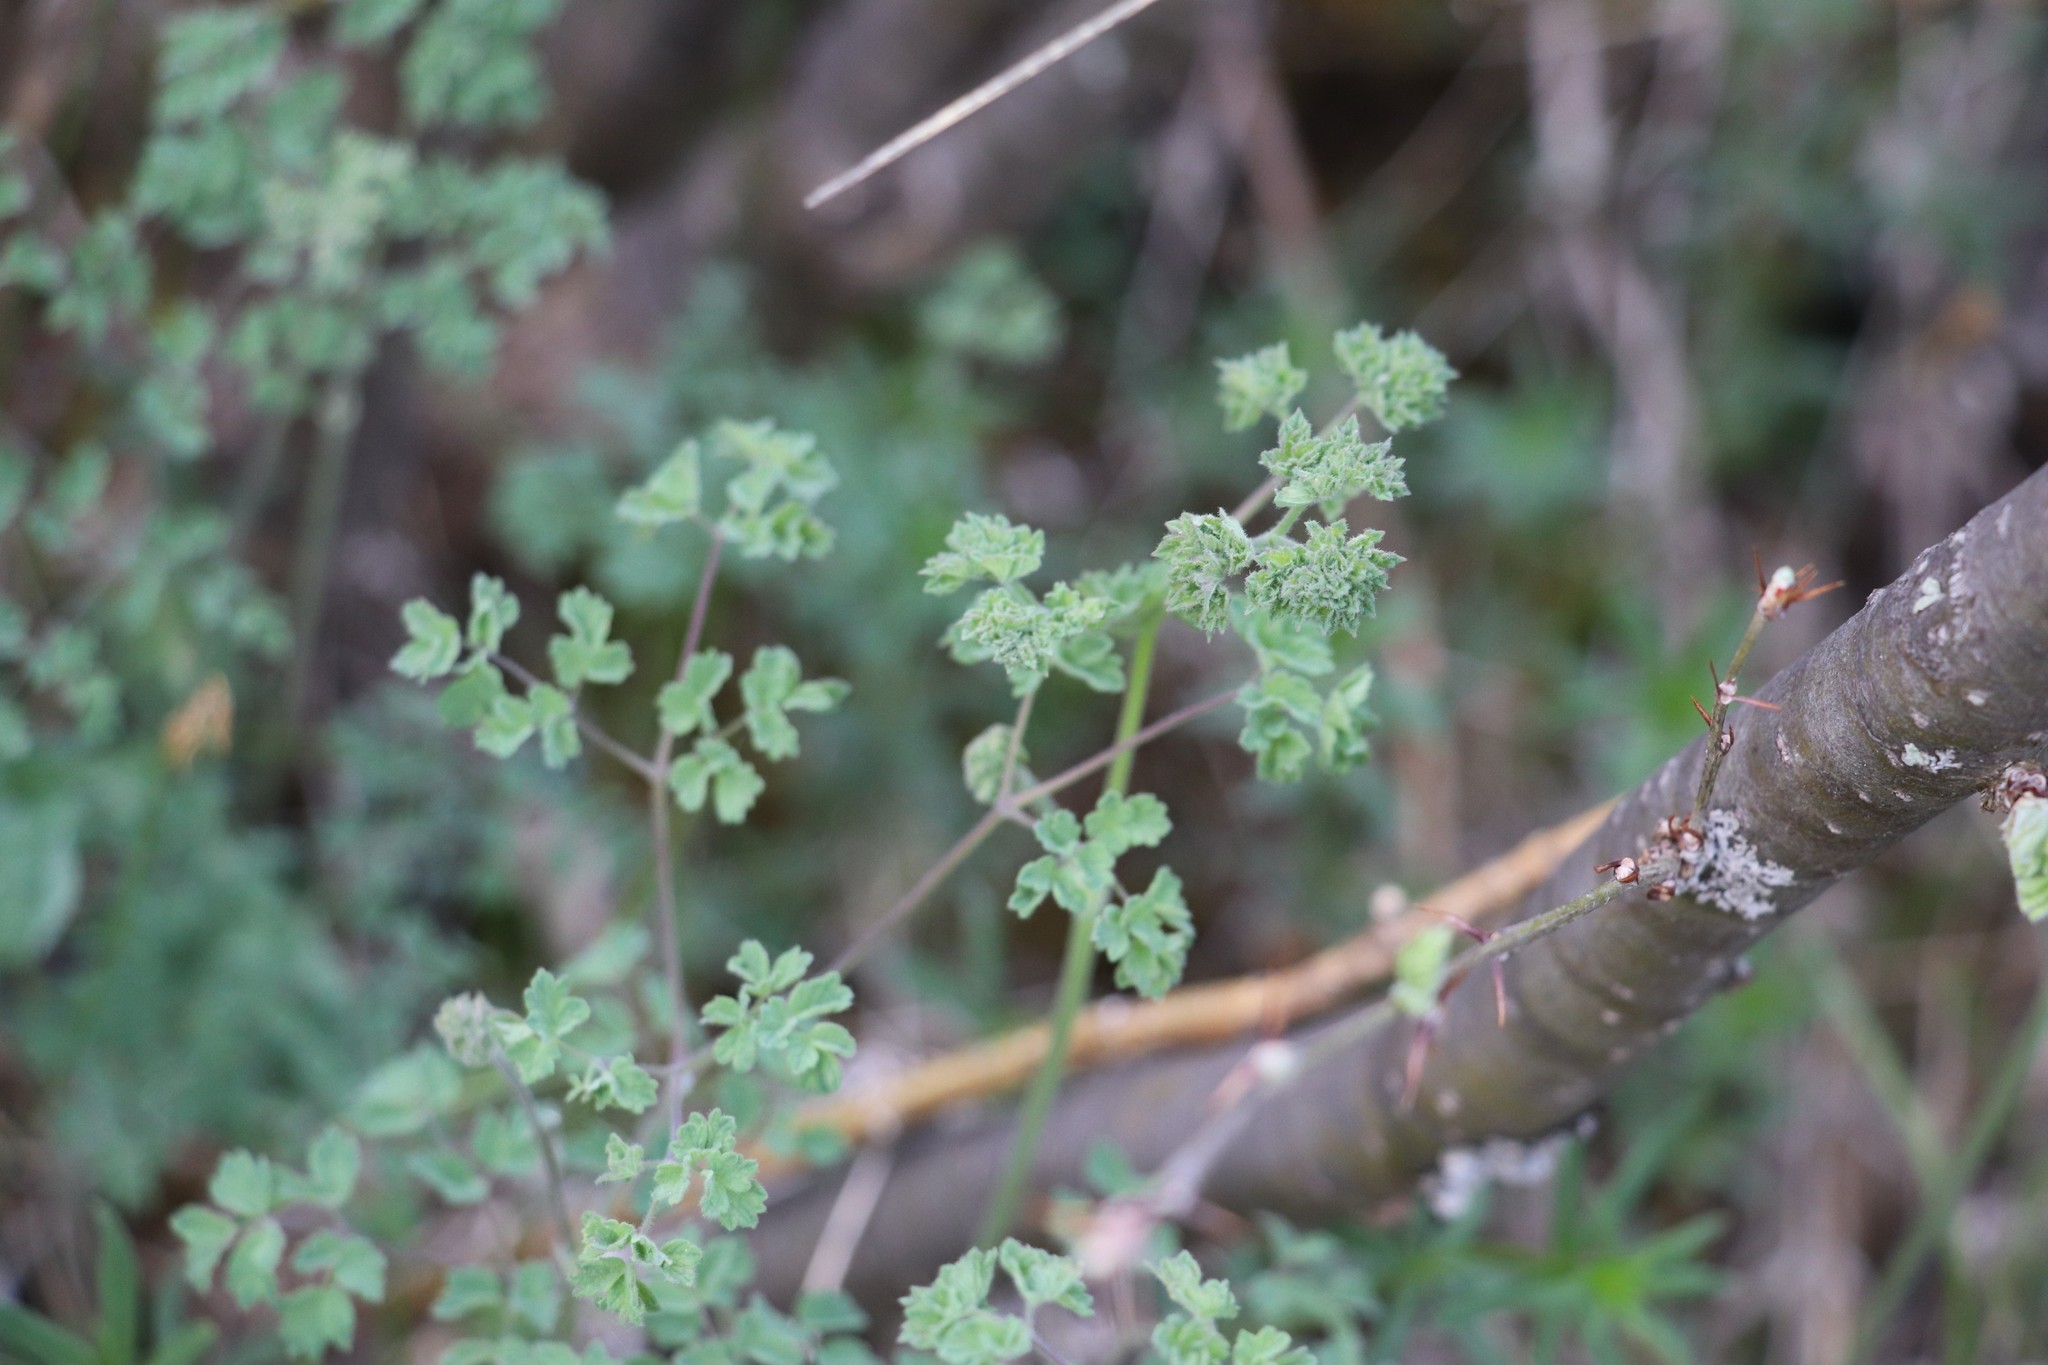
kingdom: Plantae
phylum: Tracheophyta
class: Magnoliopsida
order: Ranunculales
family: Ranunculaceae
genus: Thalictrum
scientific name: Thalictrum foetidum
